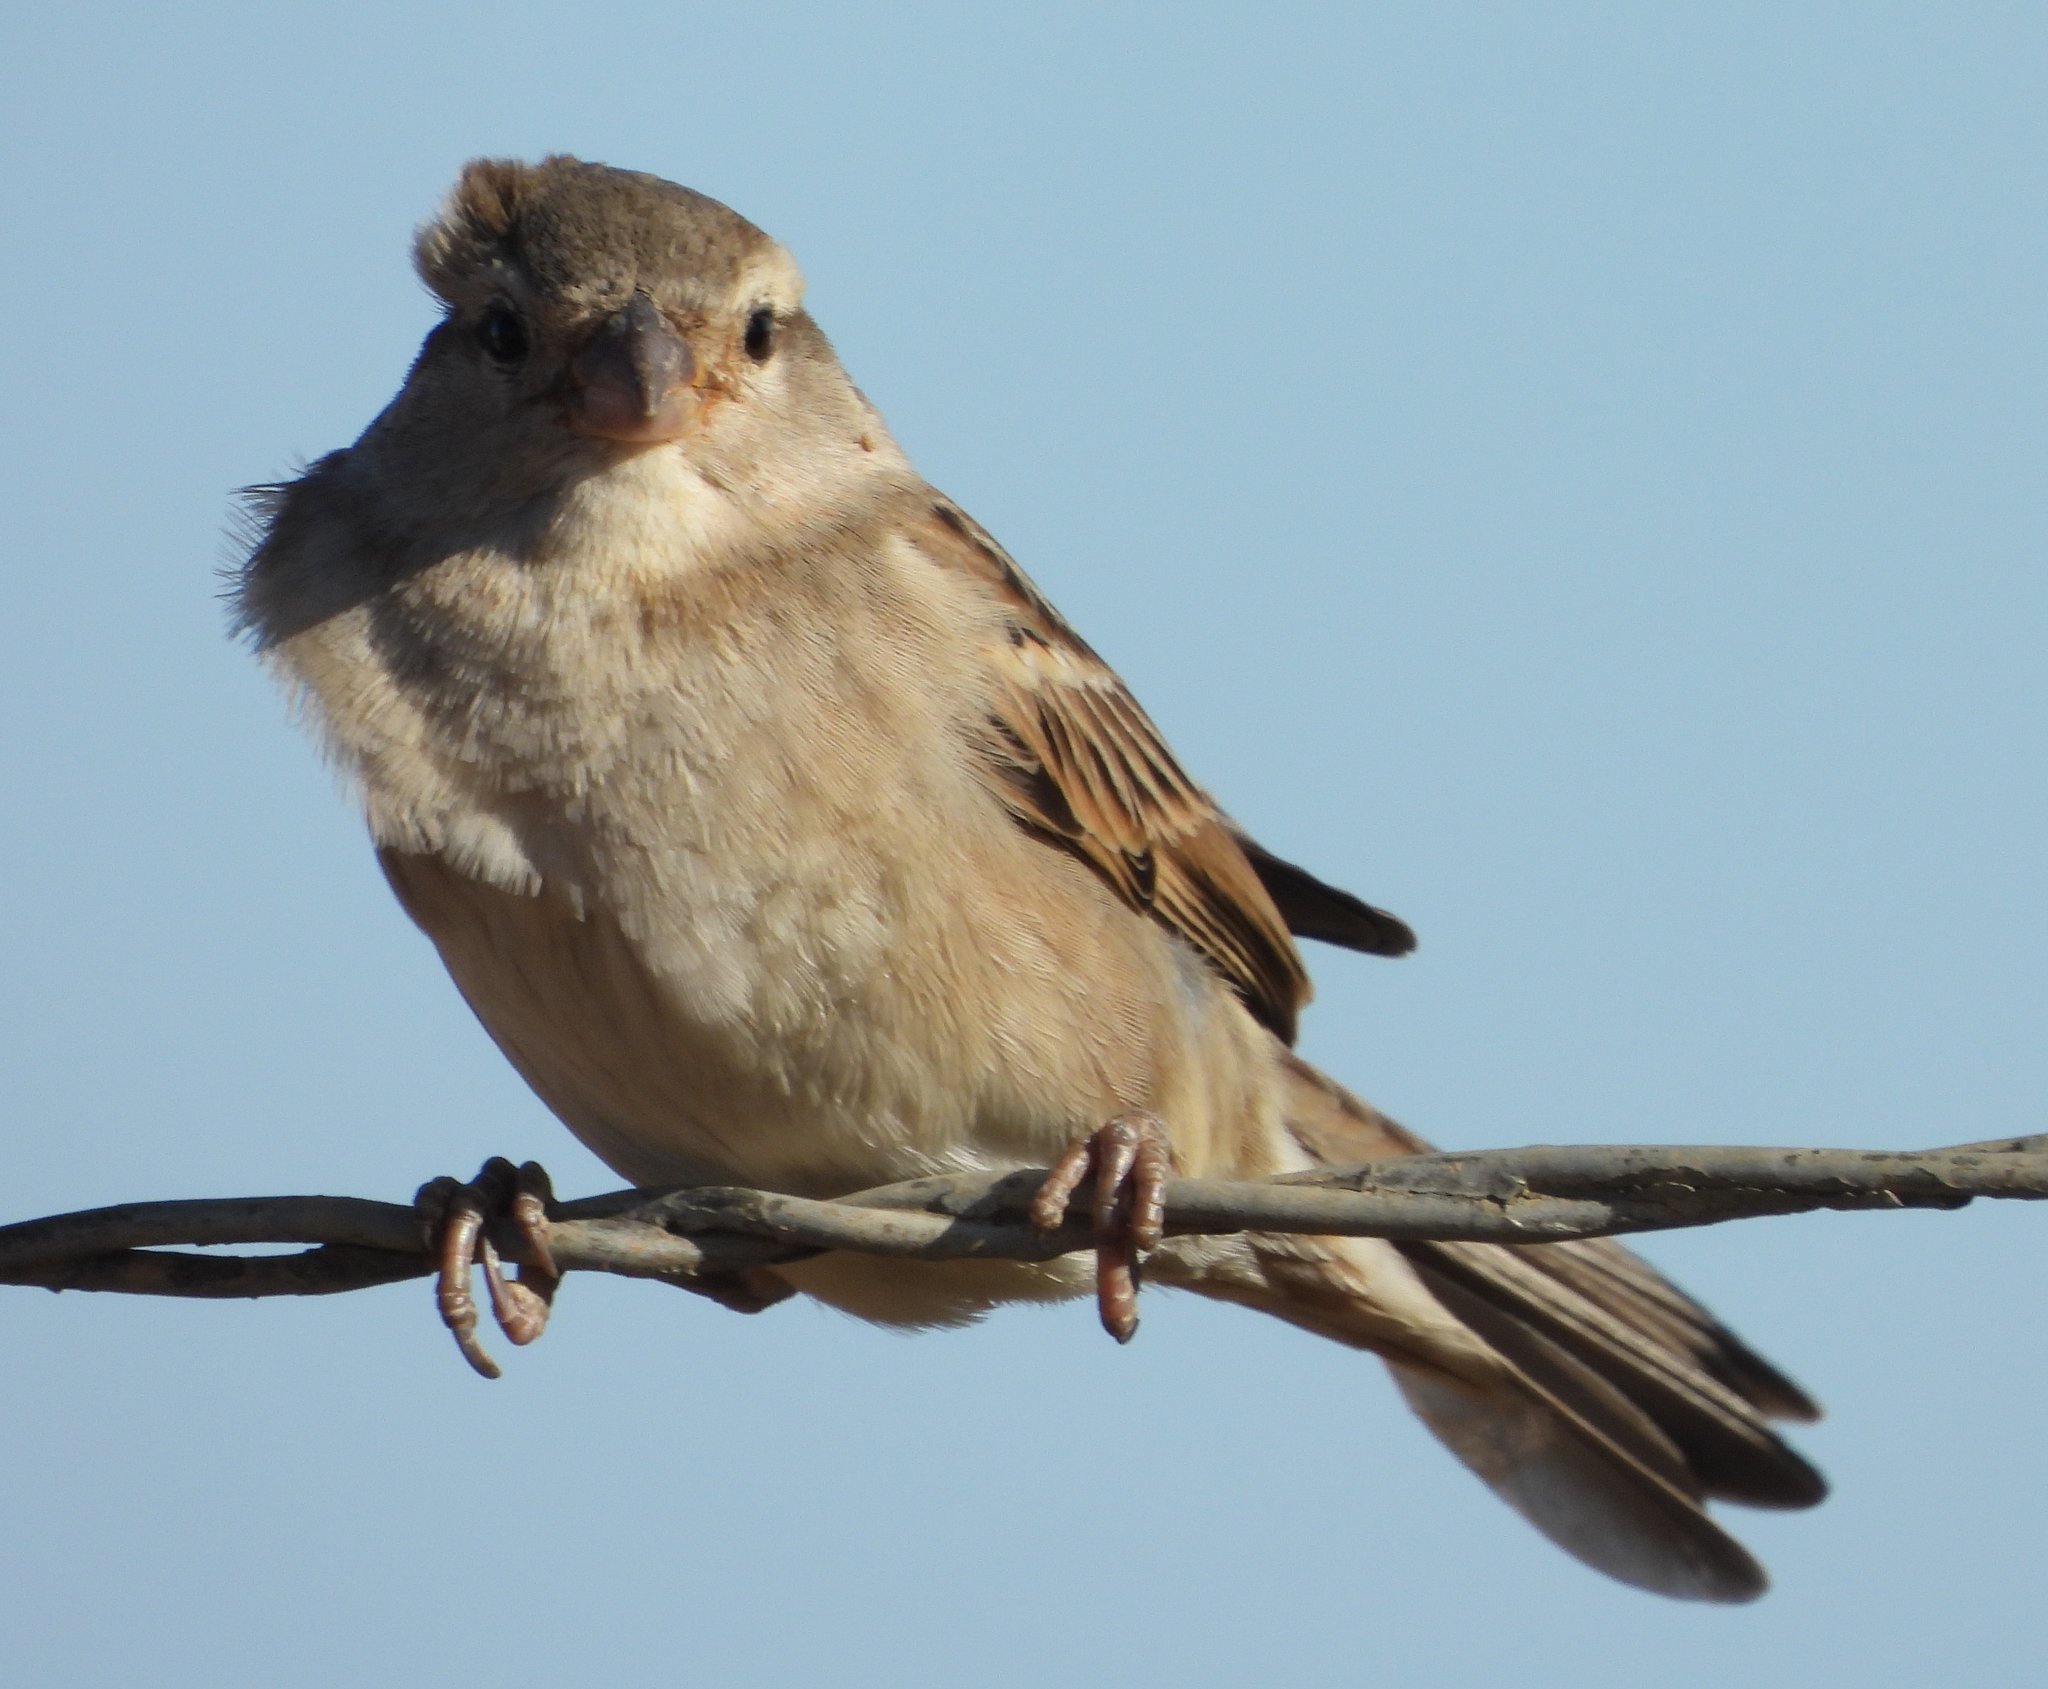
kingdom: Animalia
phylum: Chordata
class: Aves
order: Passeriformes
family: Passeridae
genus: Passer
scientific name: Passer domesticus
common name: House sparrow
